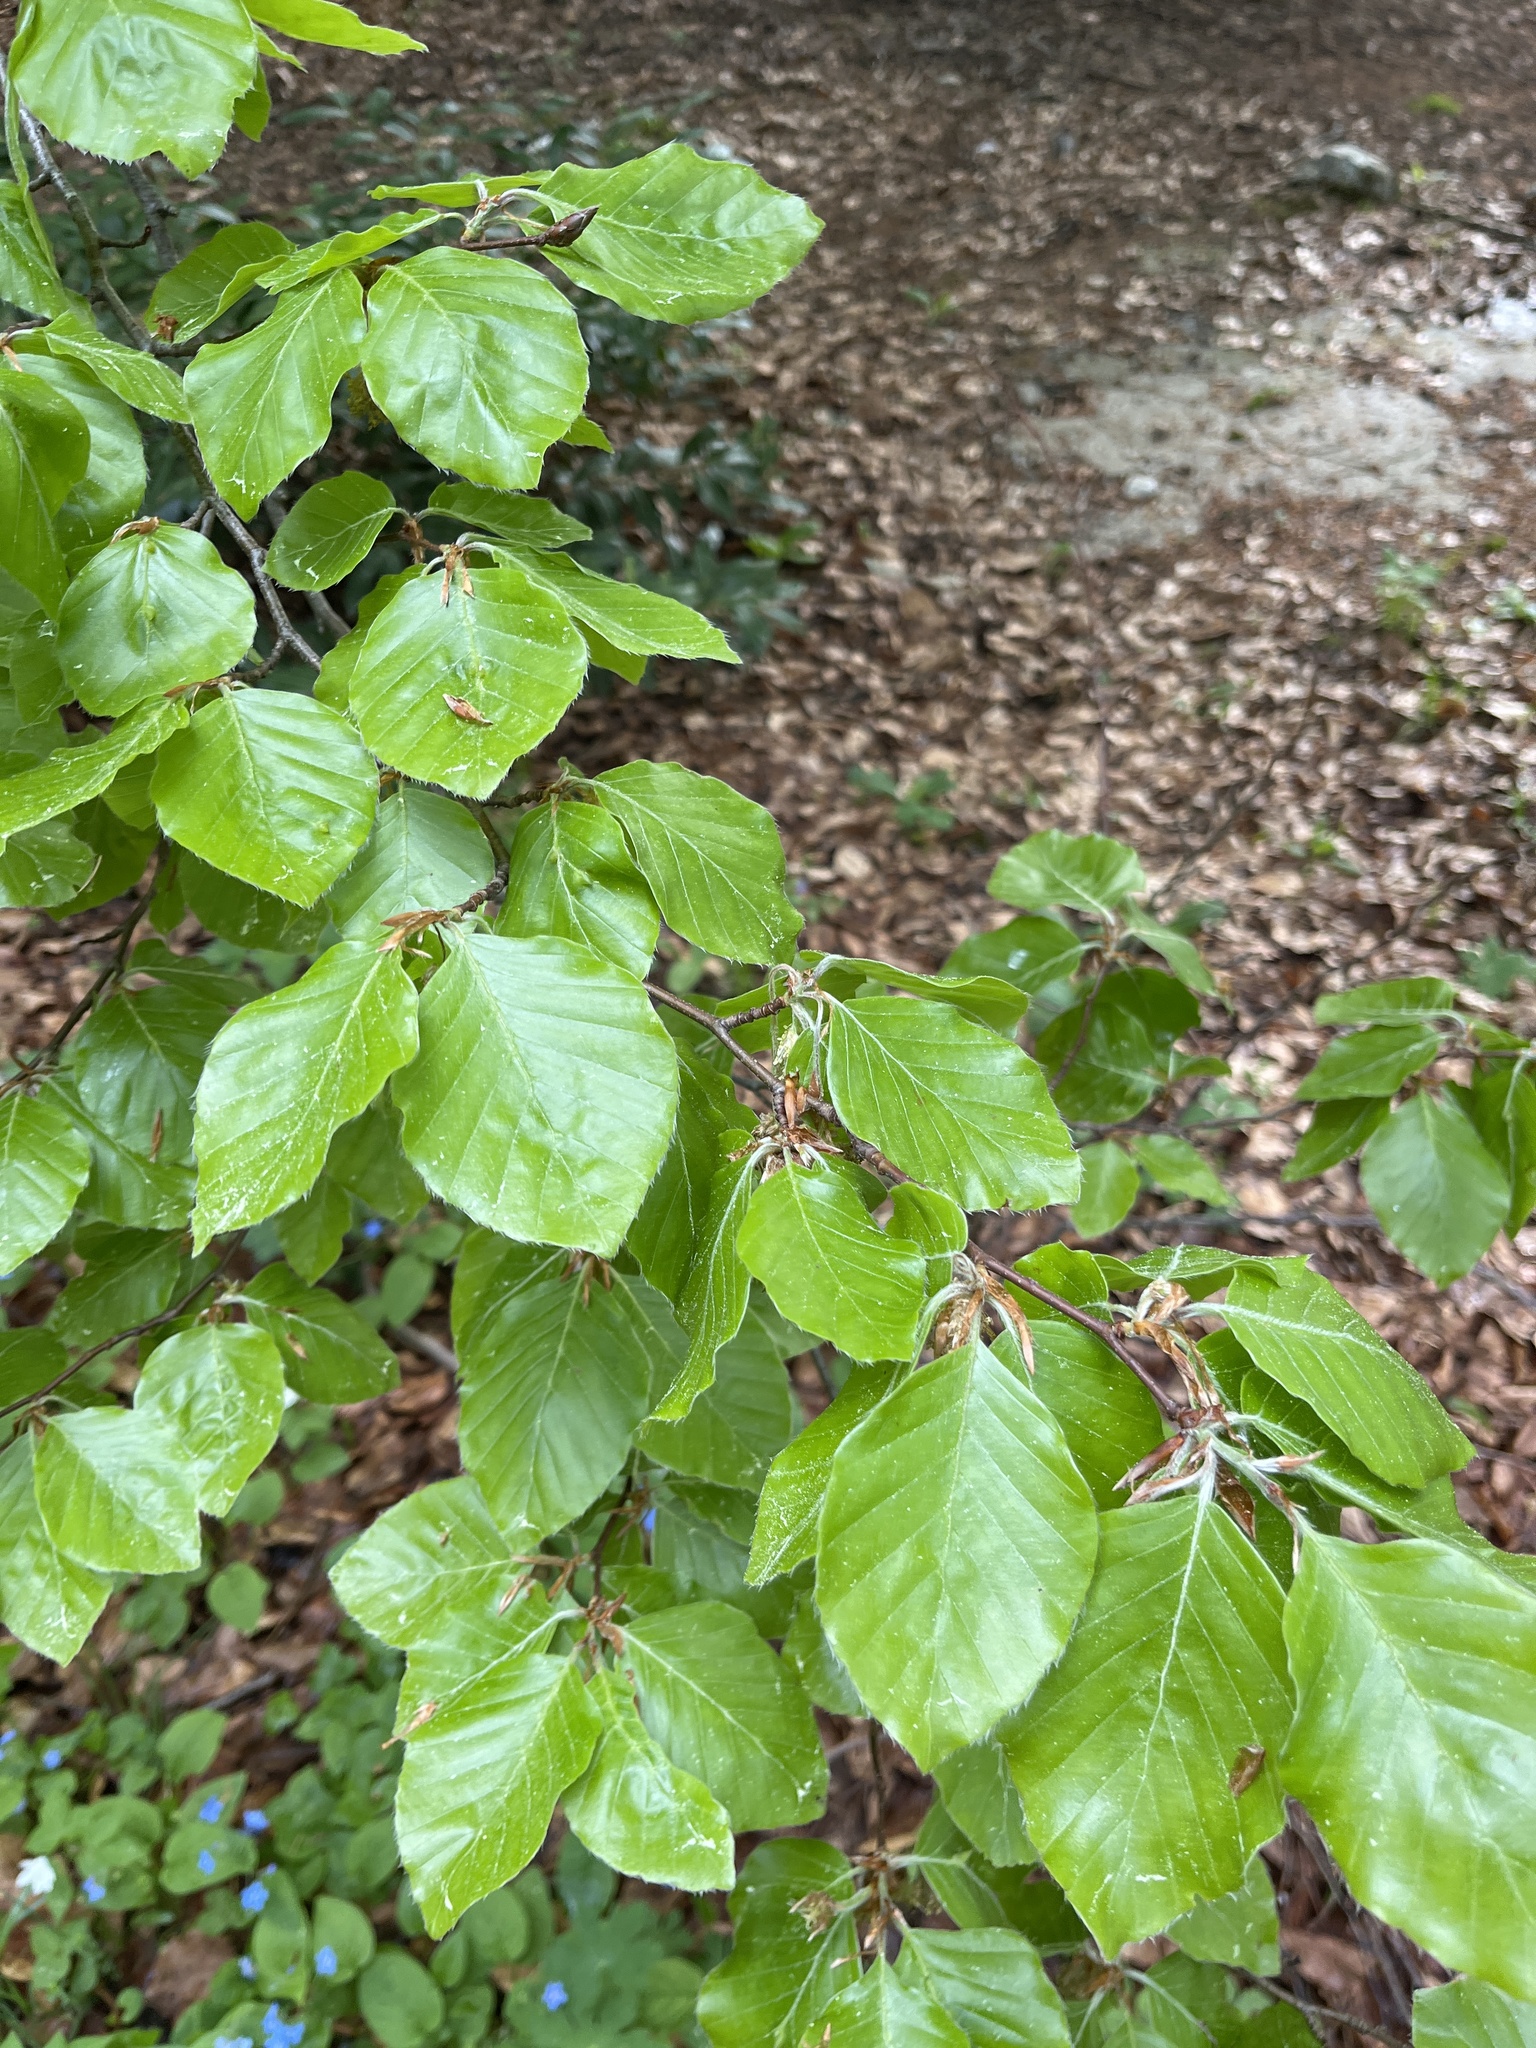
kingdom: Plantae
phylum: Tracheophyta
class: Magnoliopsida
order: Fagales
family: Fagaceae
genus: Fagus
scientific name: Fagus sylvatica
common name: Beech
